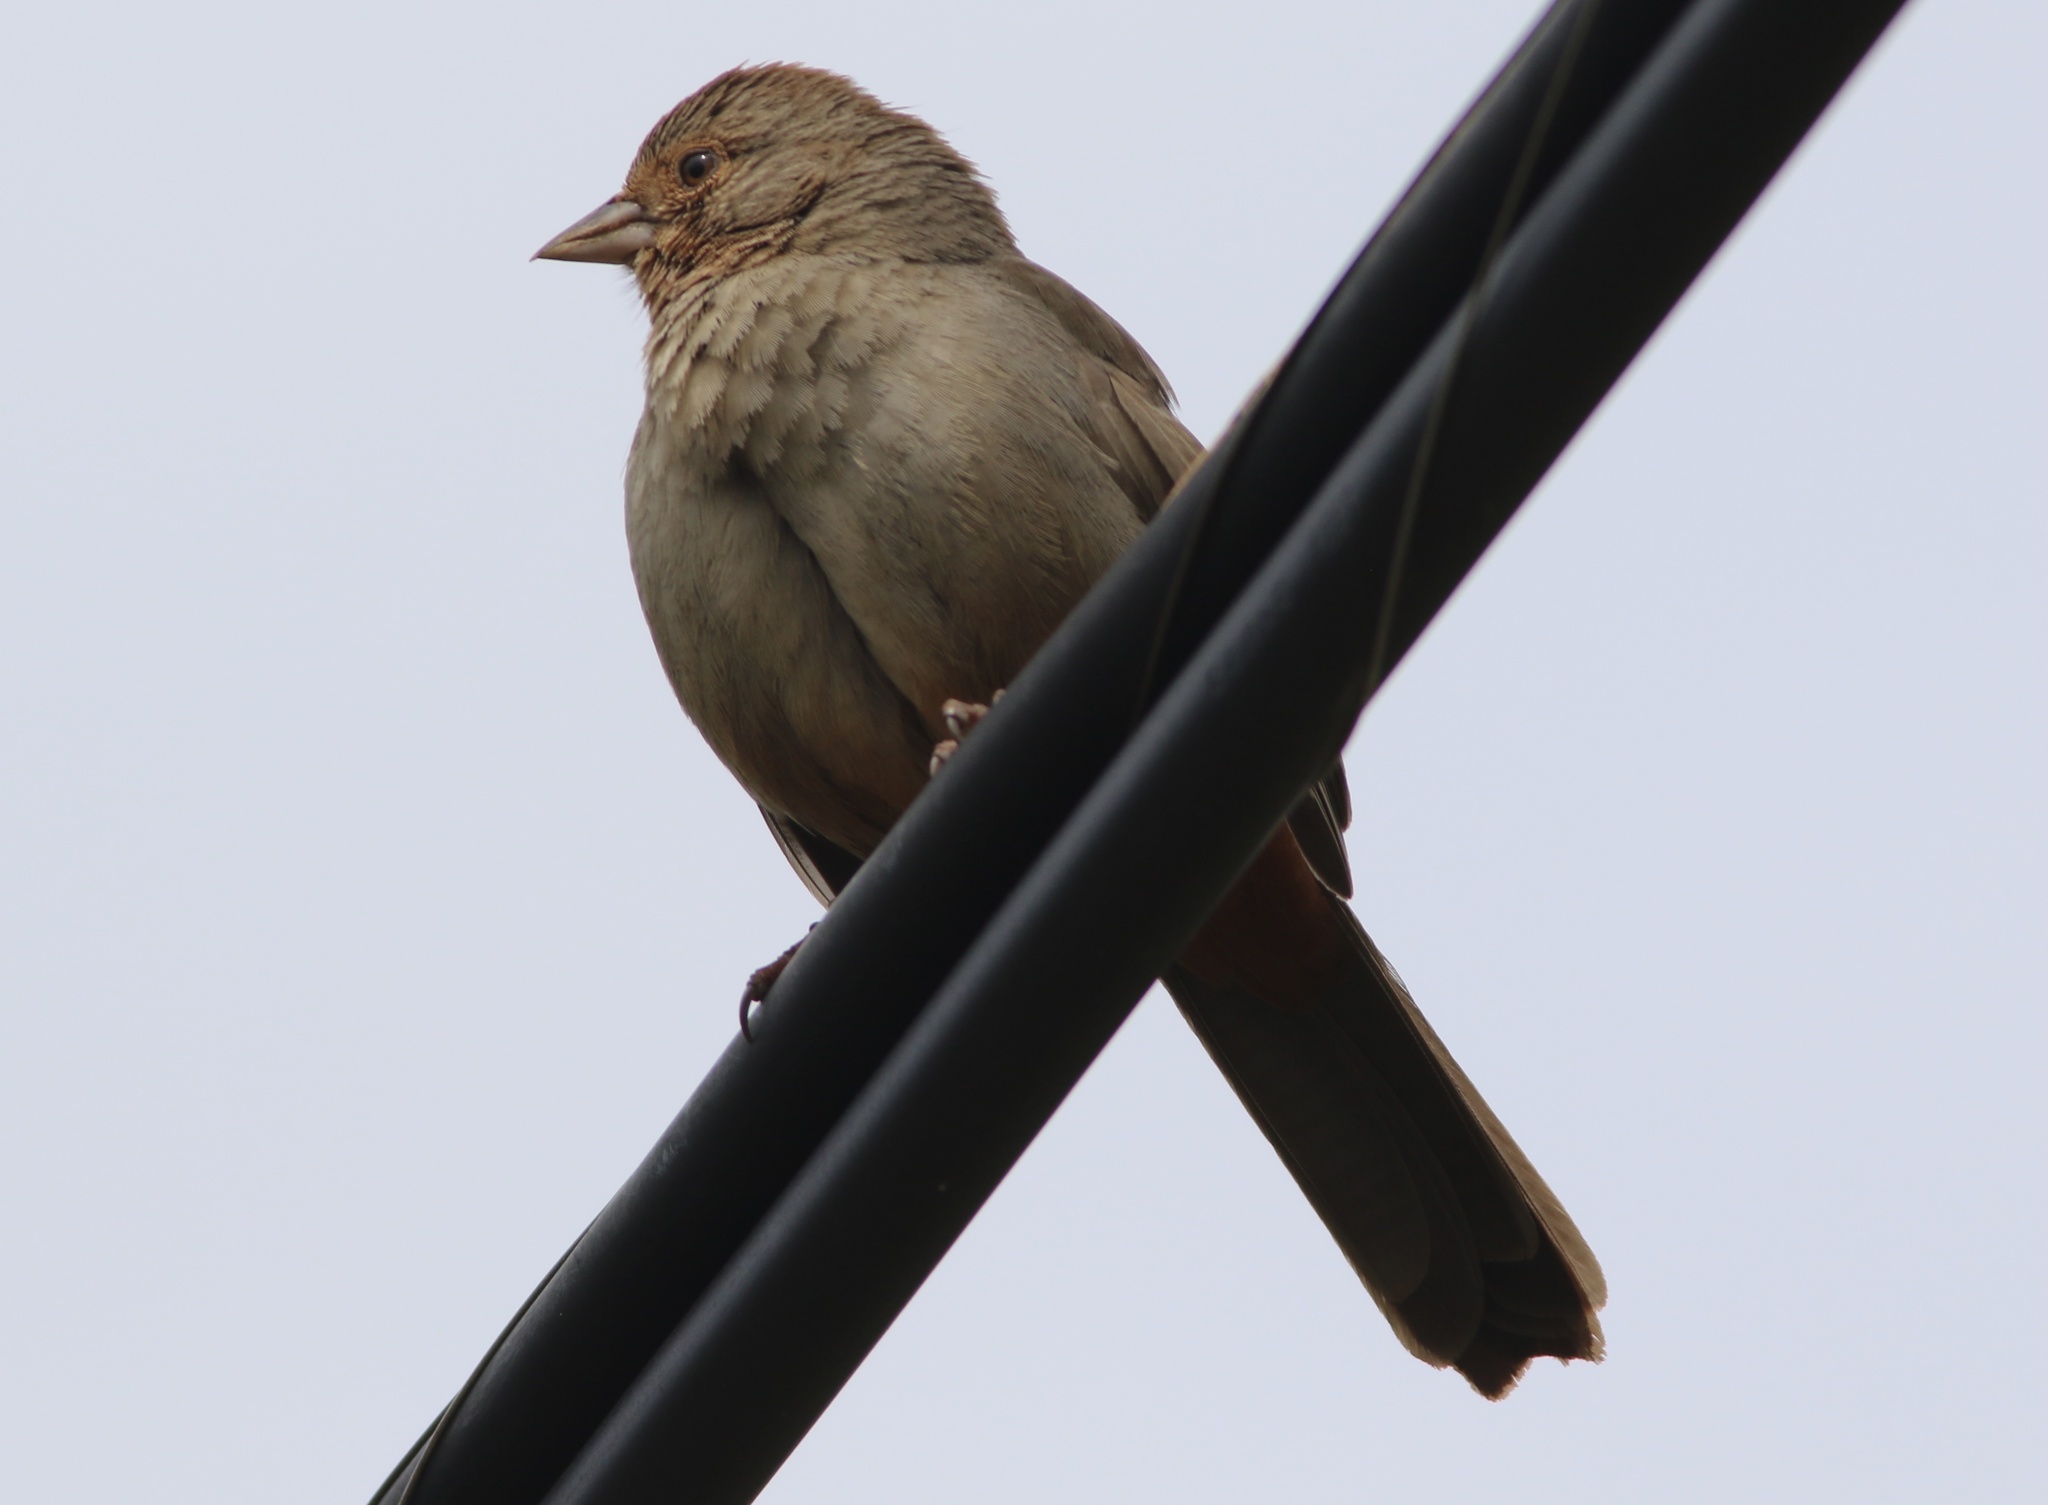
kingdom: Animalia
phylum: Chordata
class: Aves
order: Passeriformes
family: Passerellidae
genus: Melozone
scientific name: Melozone crissalis
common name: California towhee
